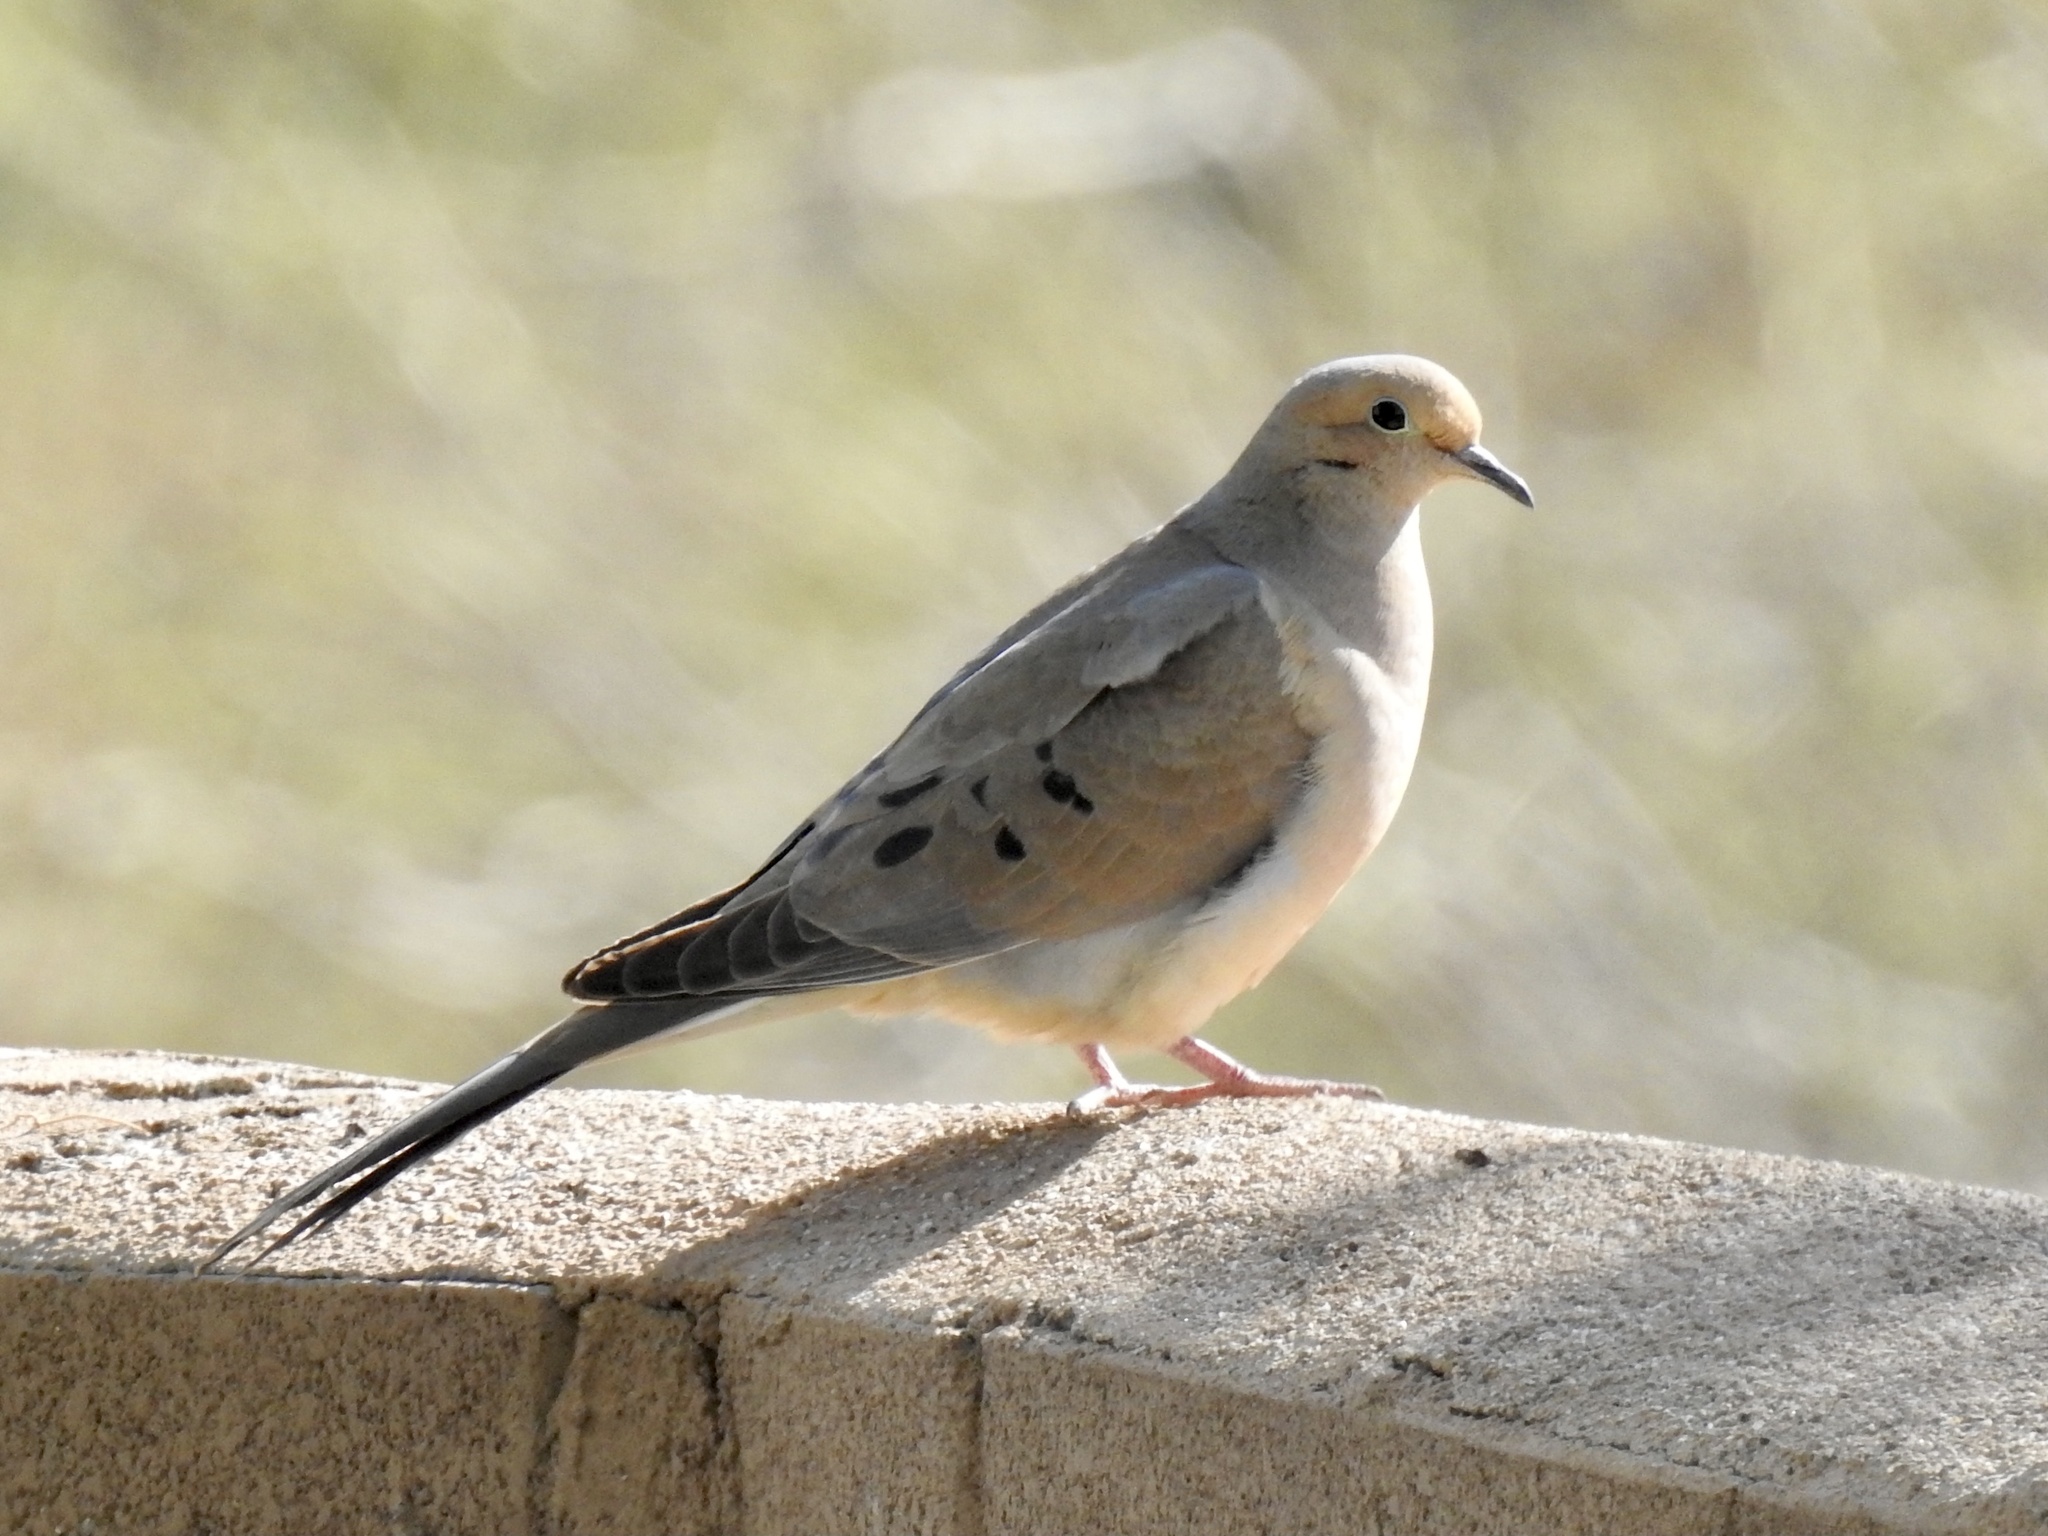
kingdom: Animalia
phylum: Chordata
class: Aves
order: Columbiformes
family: Columbidae
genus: Zenaida
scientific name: Zenaida macroura
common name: Mourning dove
